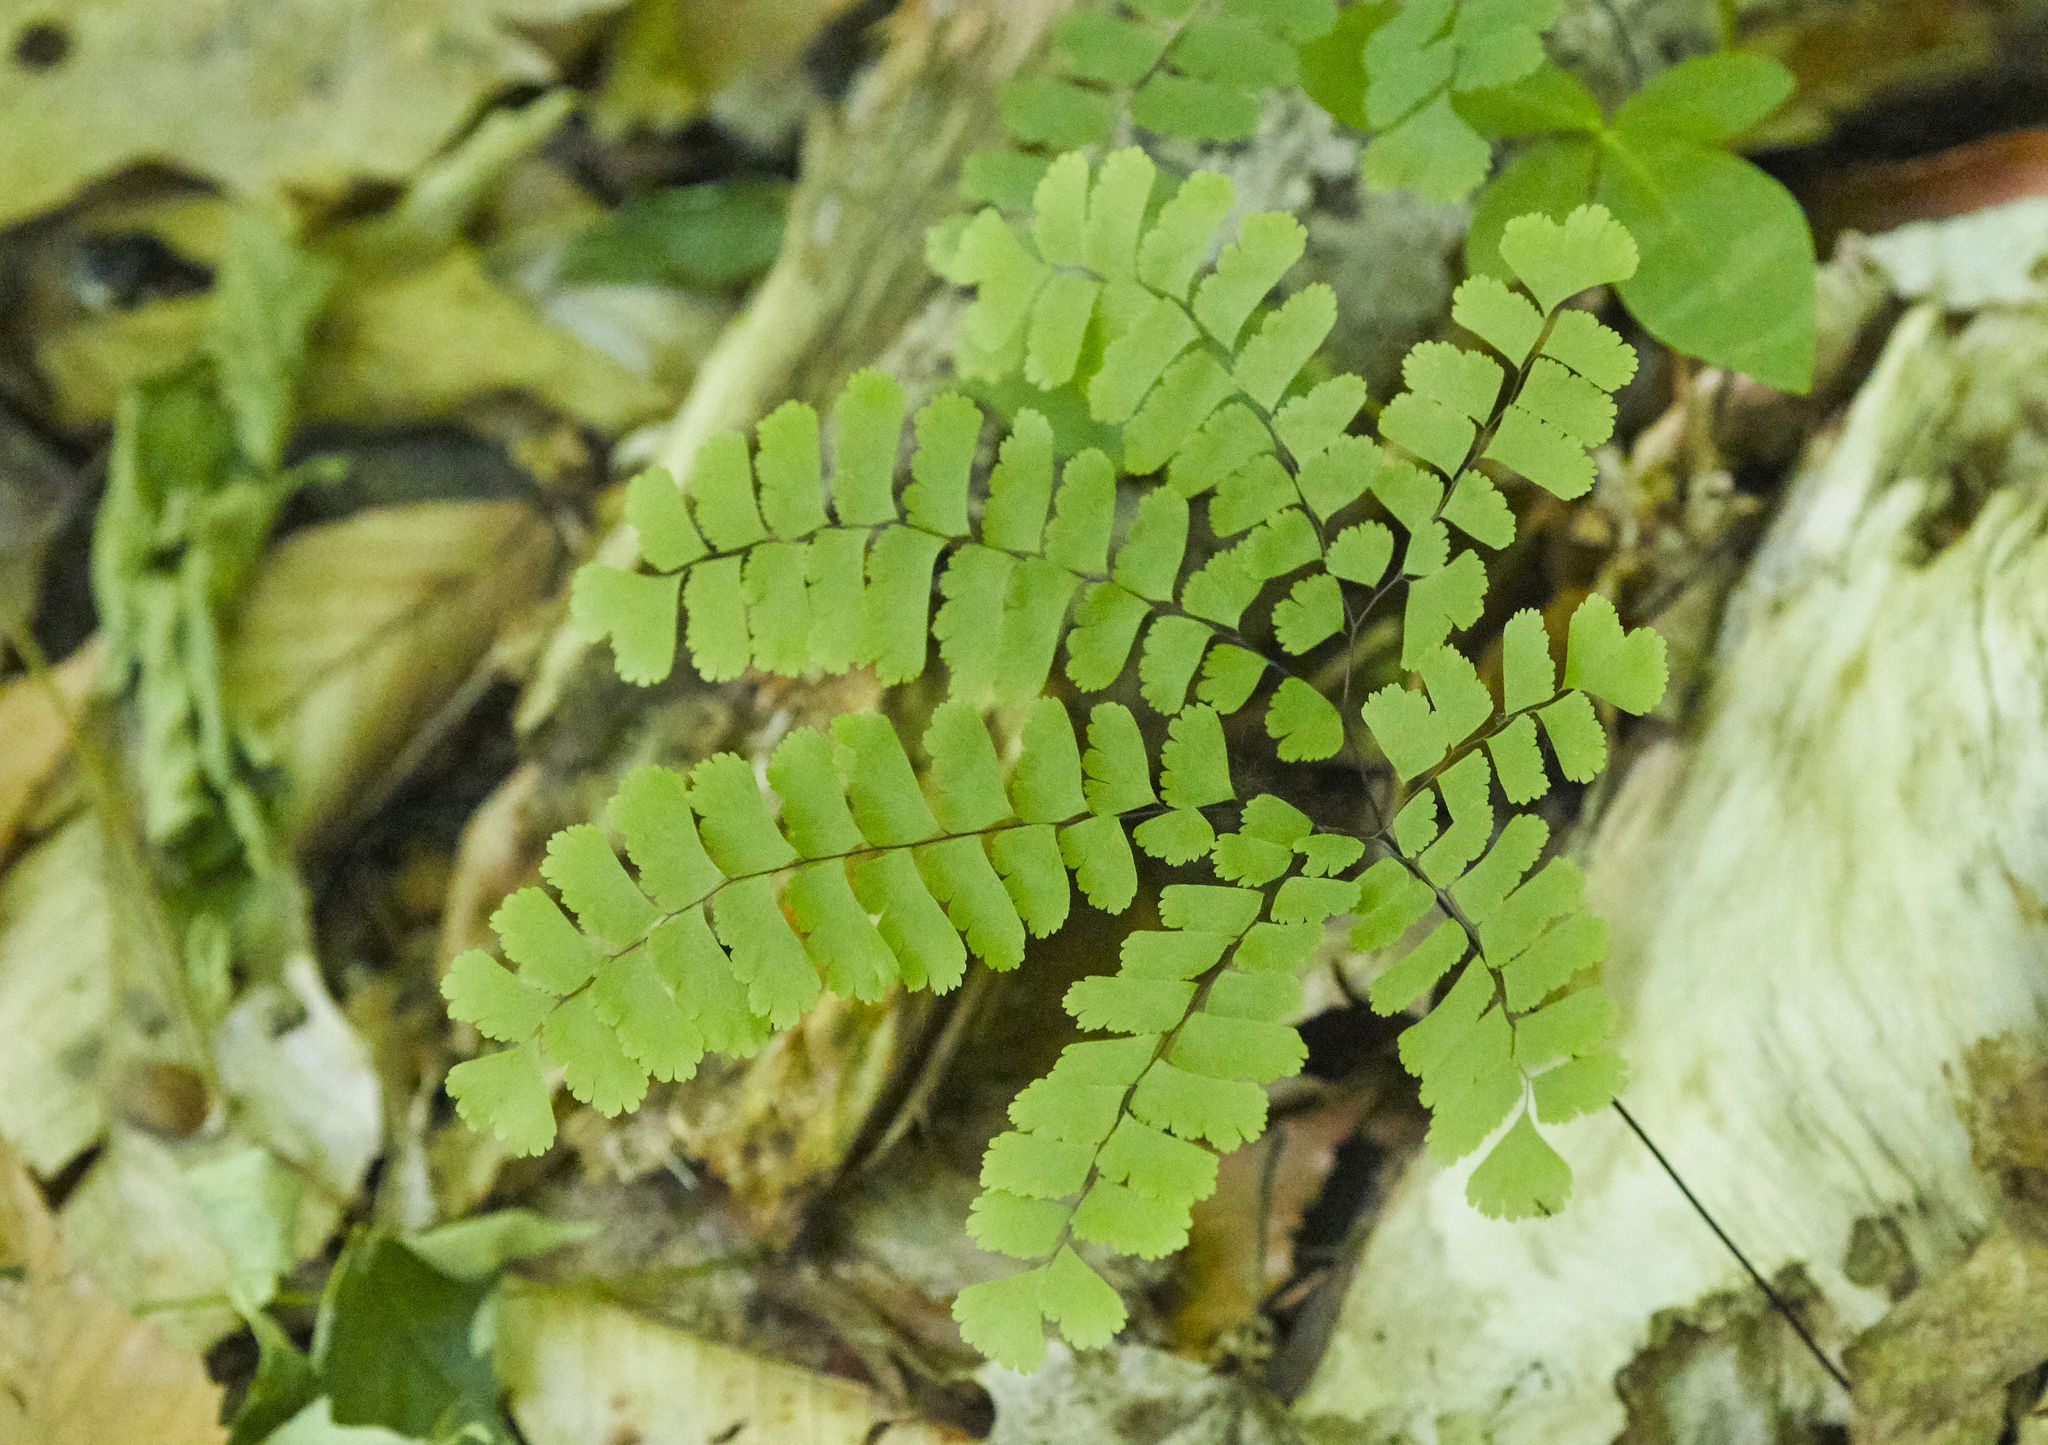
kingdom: Plantae
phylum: Tracheophyta
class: Polypodiopsida
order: Polypodiales
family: Pteridaceae
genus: Adiantum
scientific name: Adiantum pedatum
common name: Five-finger fern
